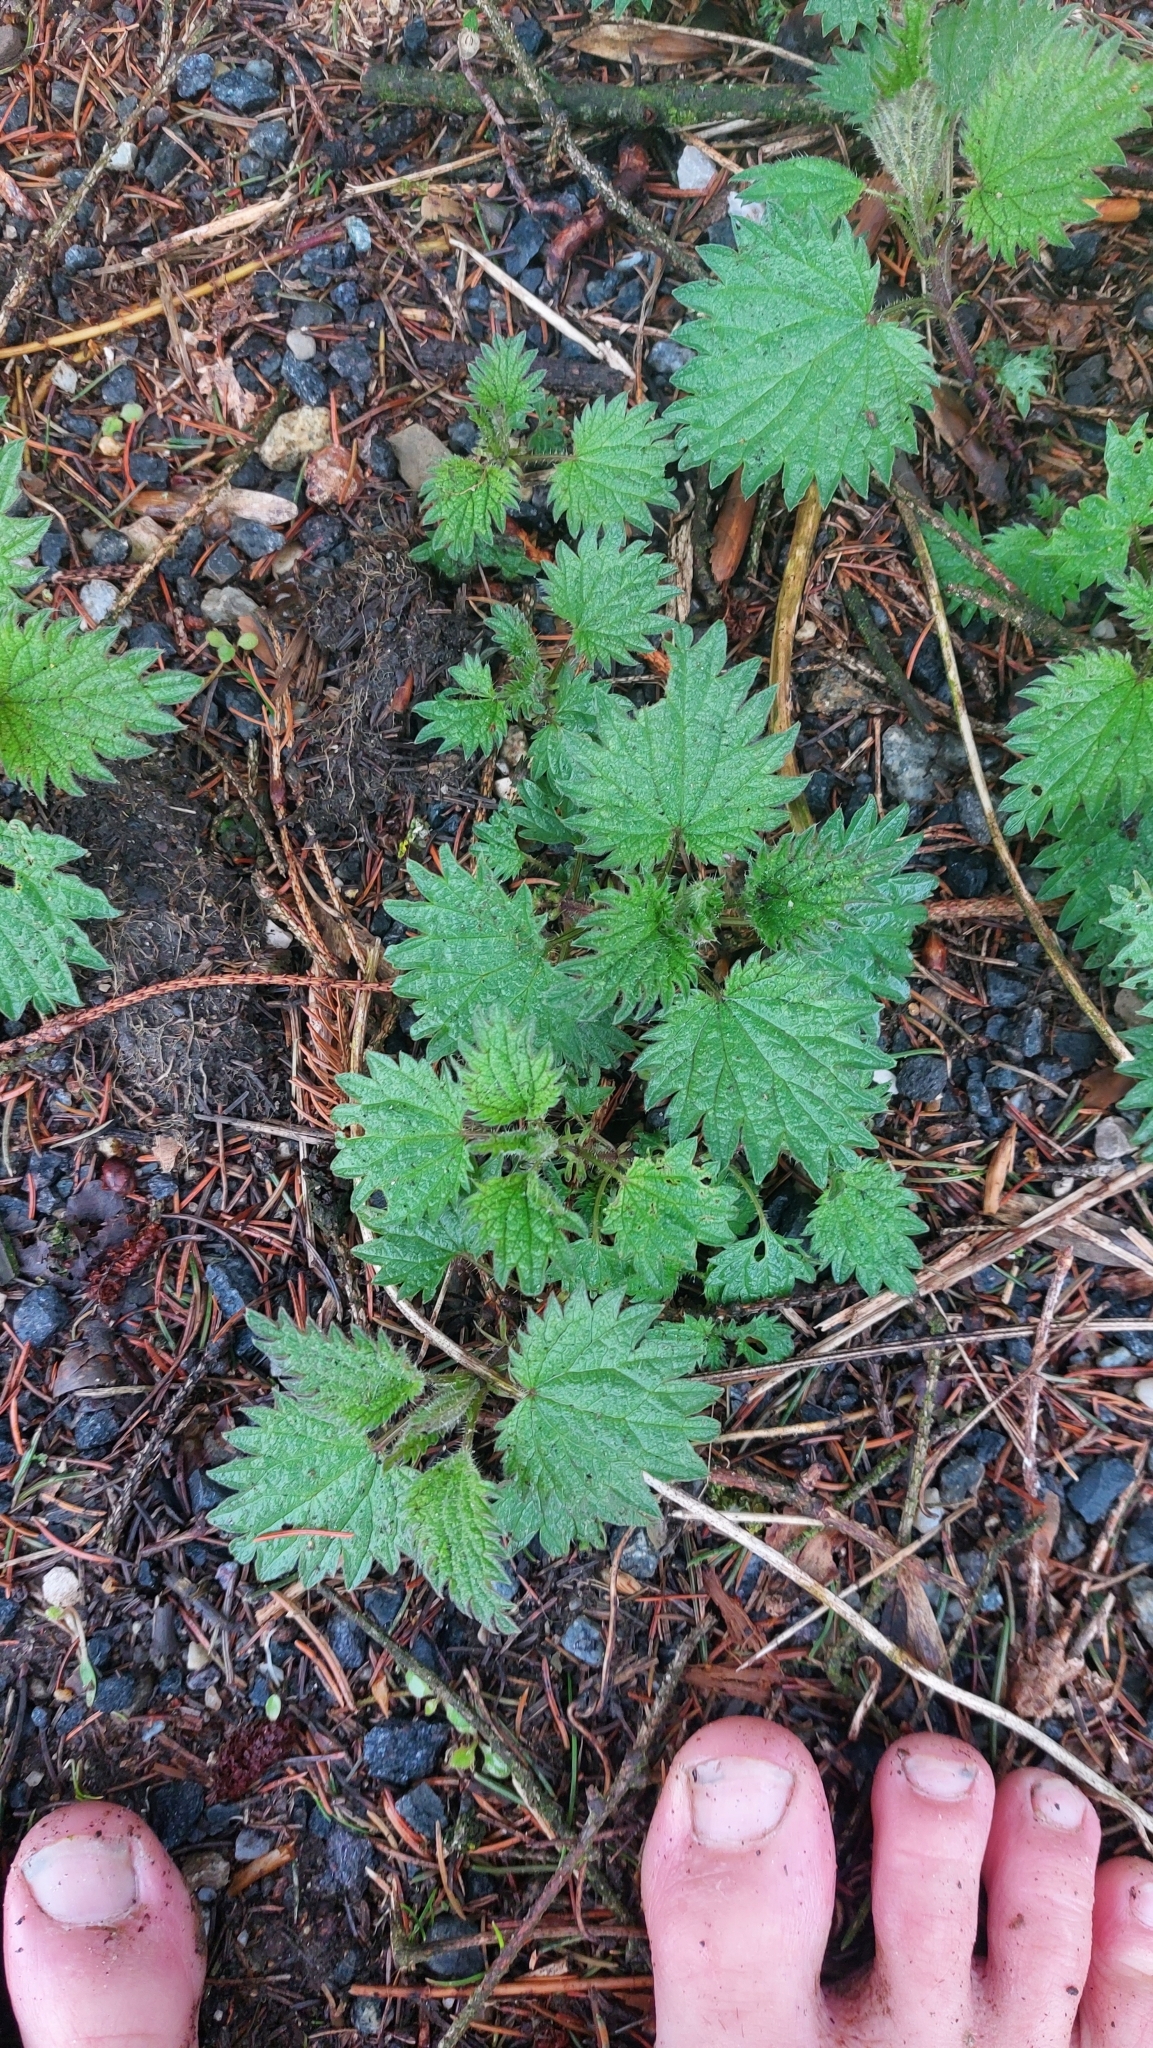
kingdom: Plantae
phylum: Tracheophyta
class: Magnoliopsida
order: Rosales
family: Urticaceae
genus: Urtica
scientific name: Urtica dioica
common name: Common nettle
